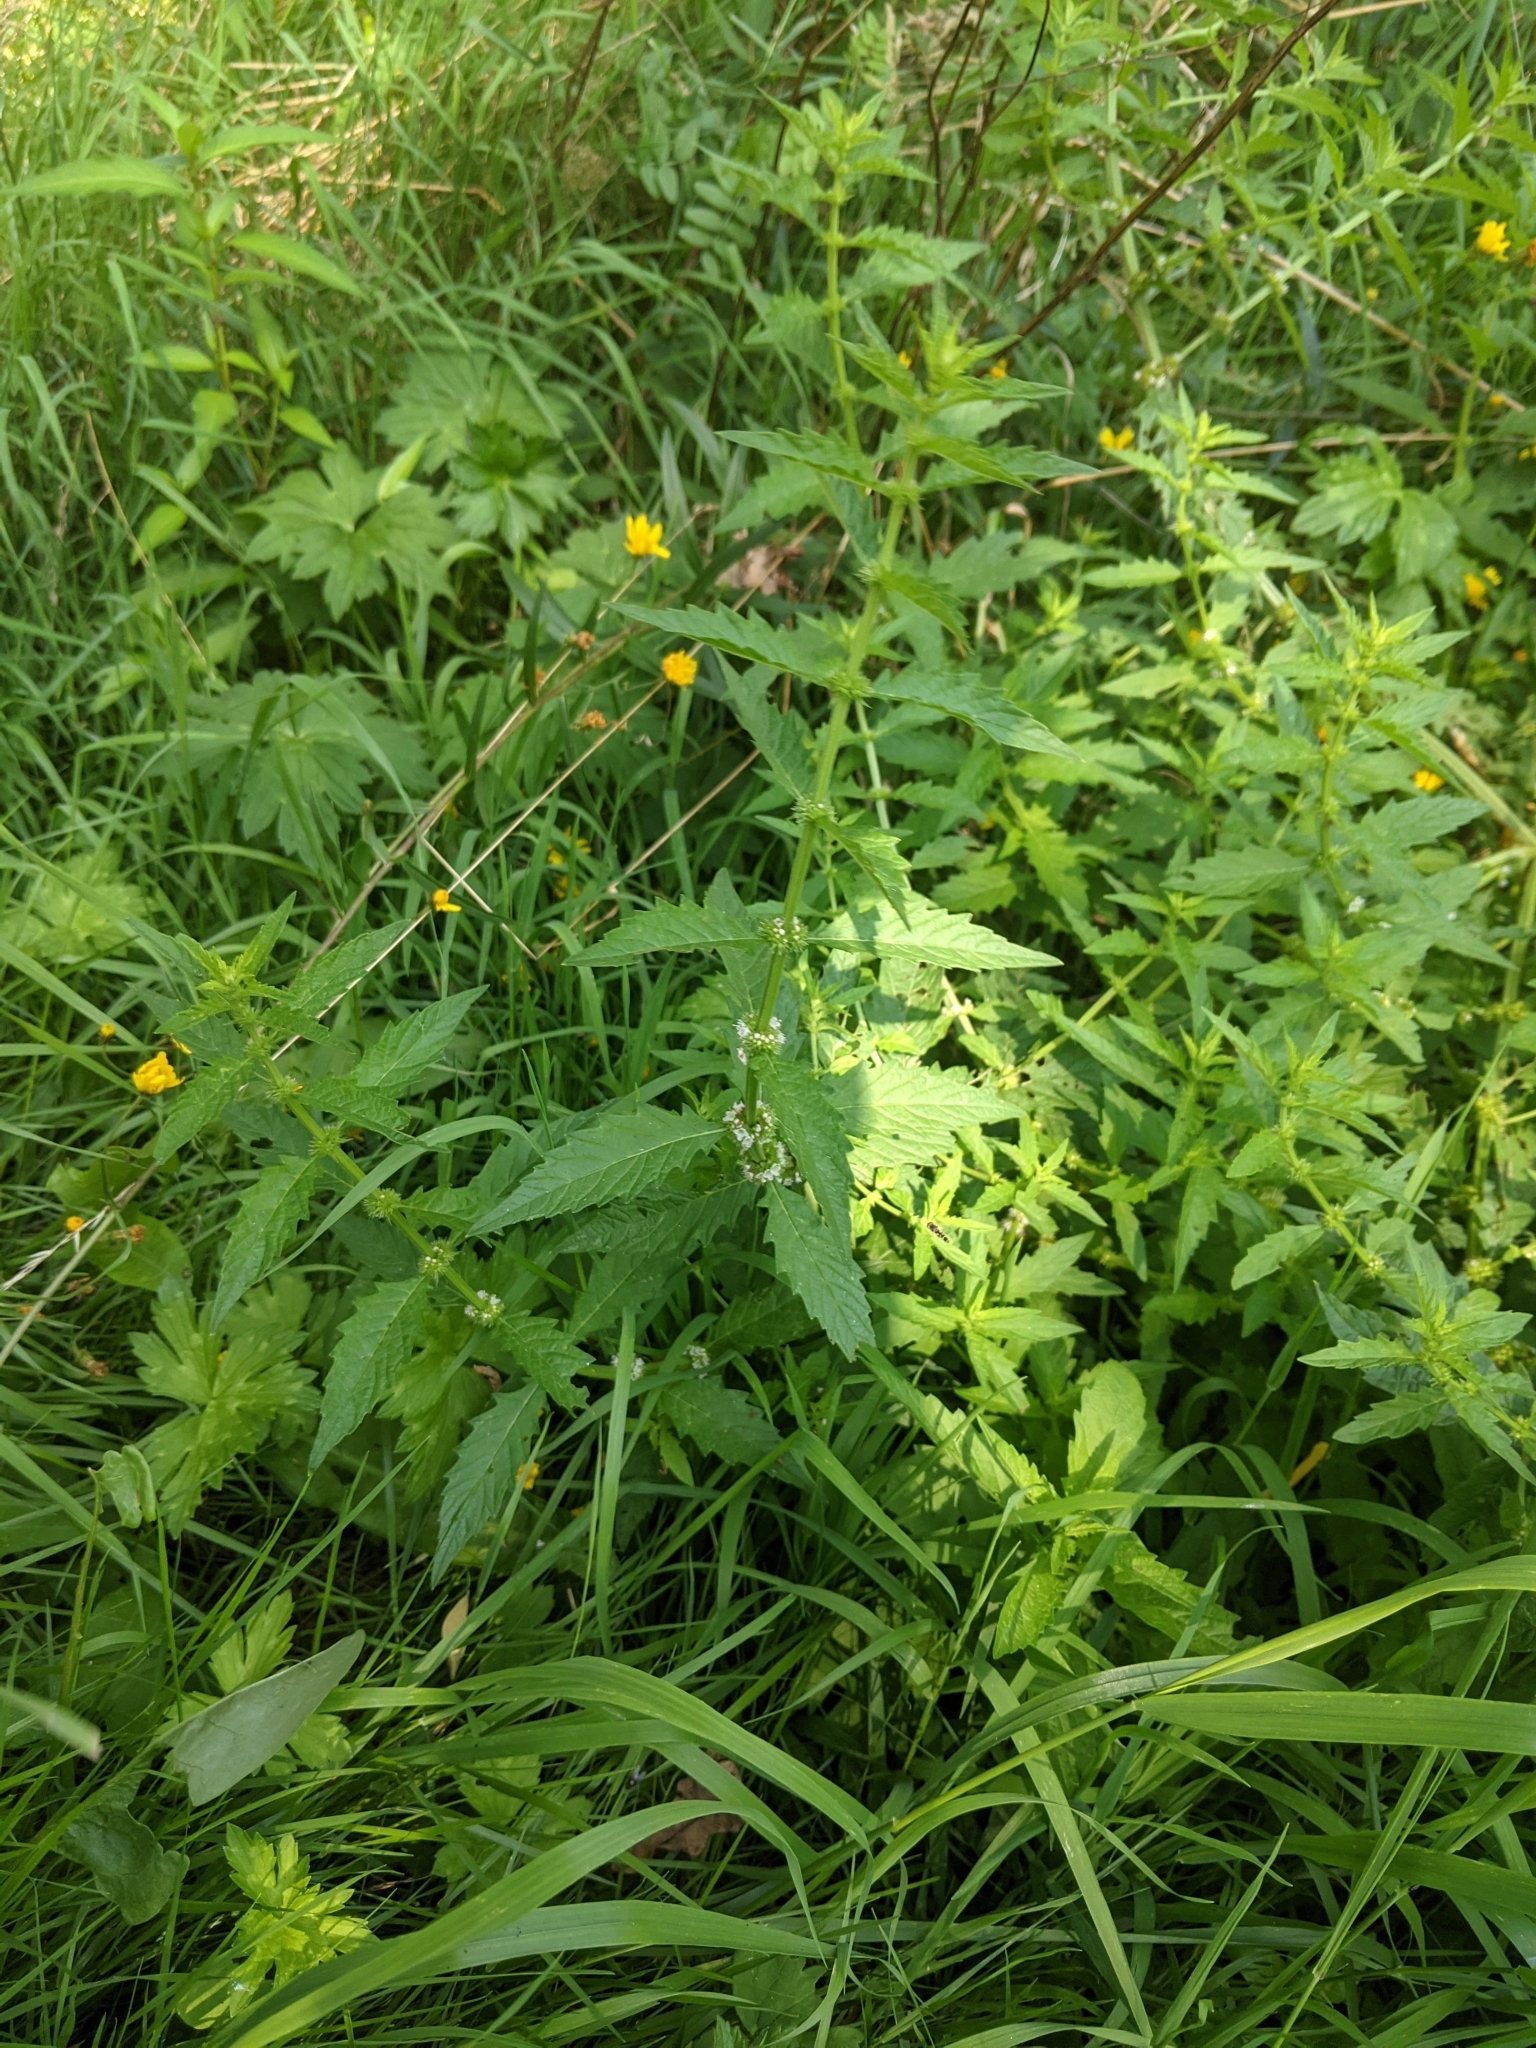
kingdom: Plantae
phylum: Tracheophyta
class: Magnoliopsida
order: Lamiales
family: Lamiaceae
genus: Lycopus
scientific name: Lycopus europaeus
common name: European bugleweed
